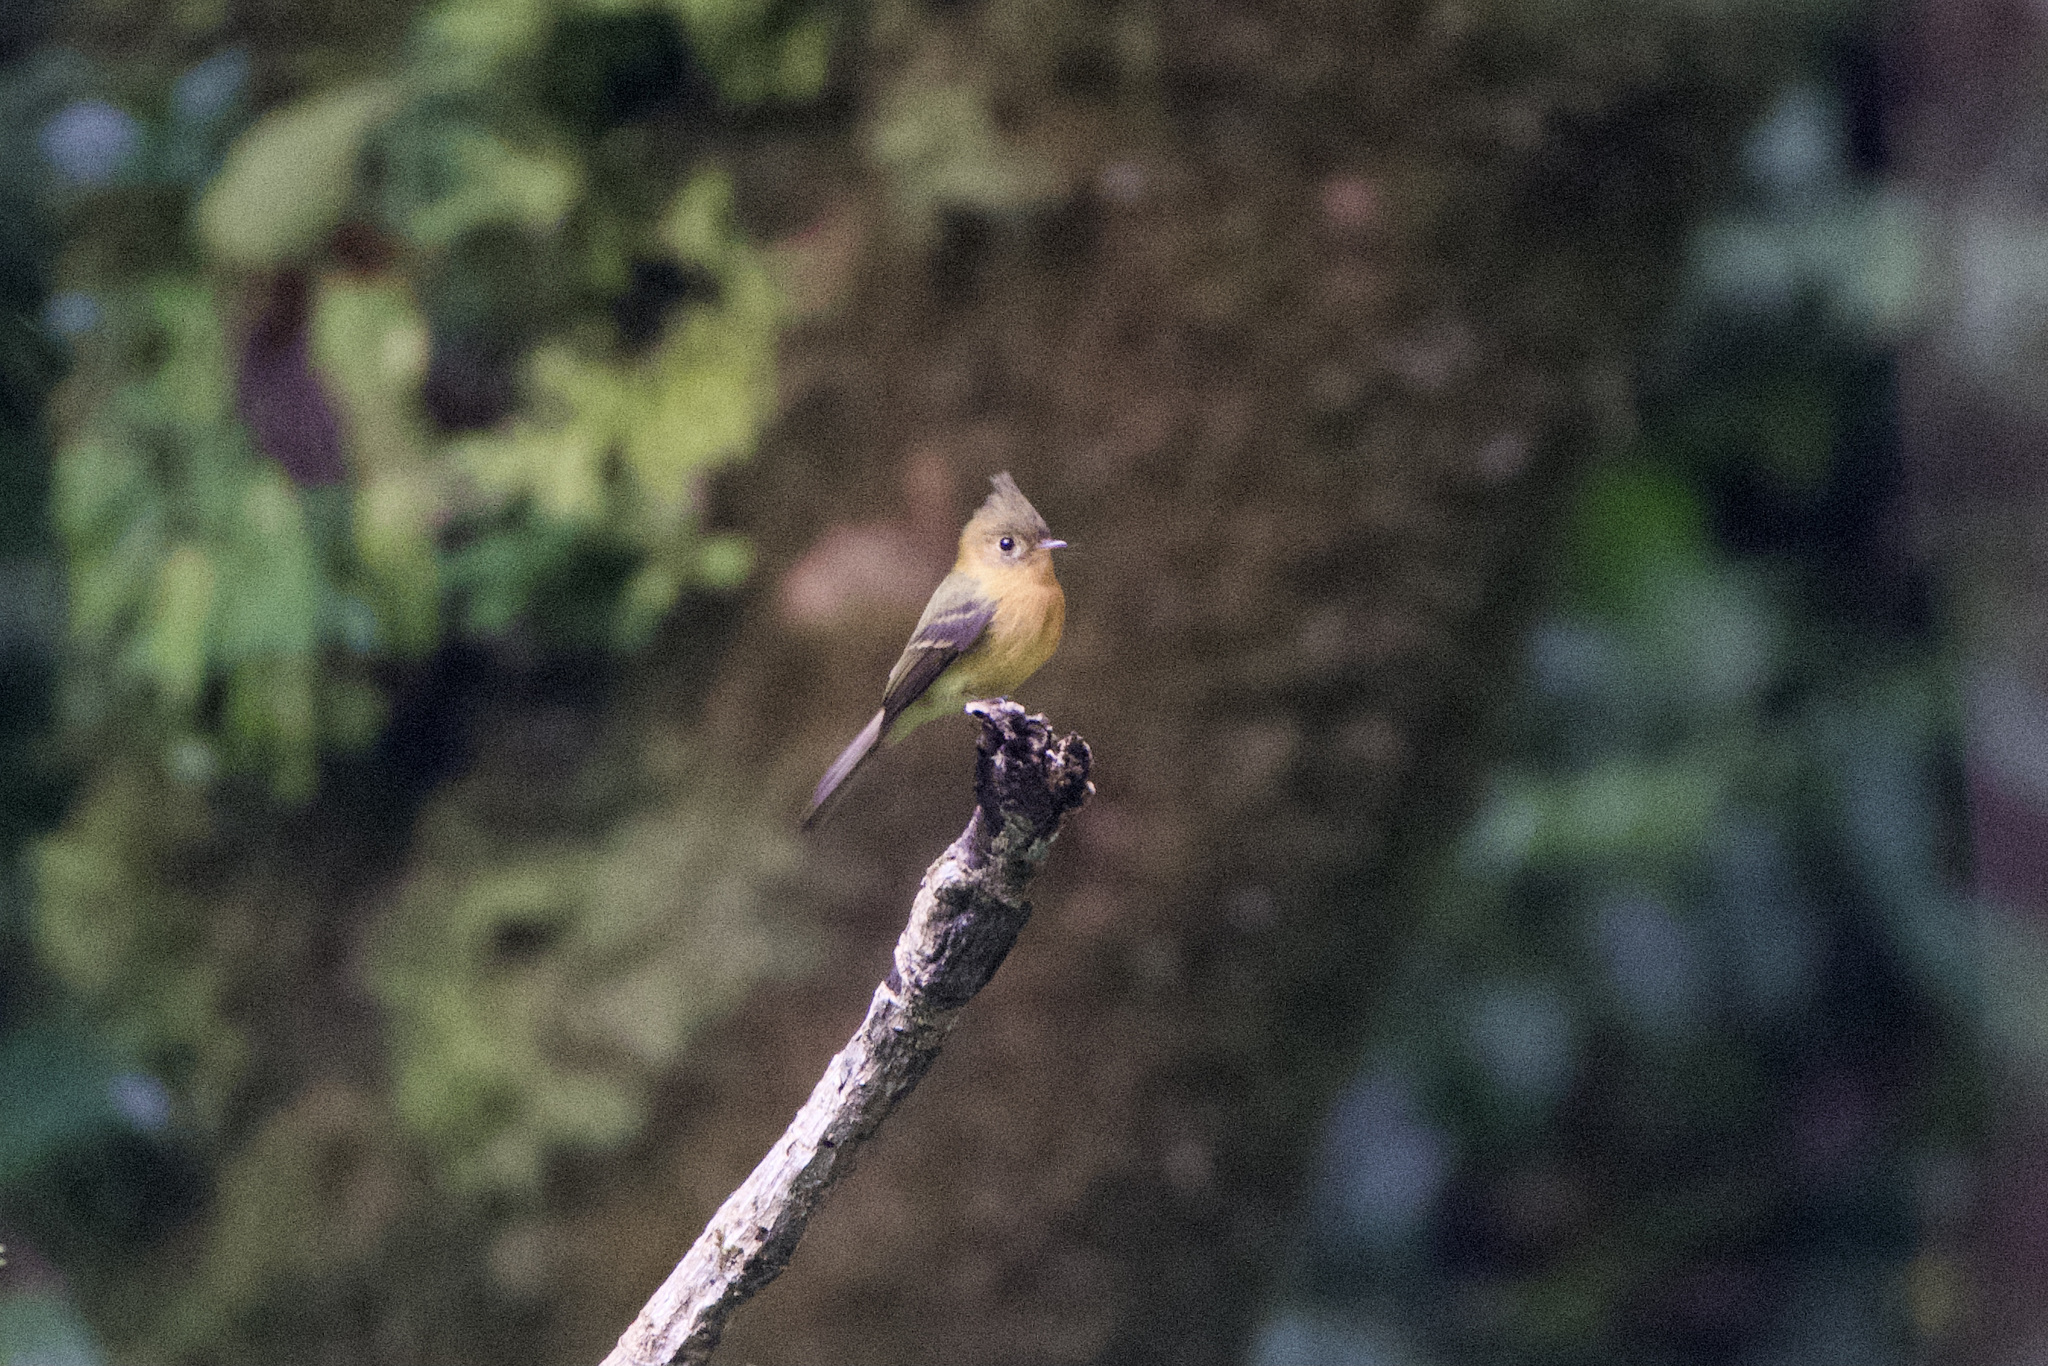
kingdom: Animalia
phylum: Chordata
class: Aves
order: Passeriformes
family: Tyrannidae
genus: Mitrephanes
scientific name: Mitrephanes phaeocercus
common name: Northern tufted flycatcher
